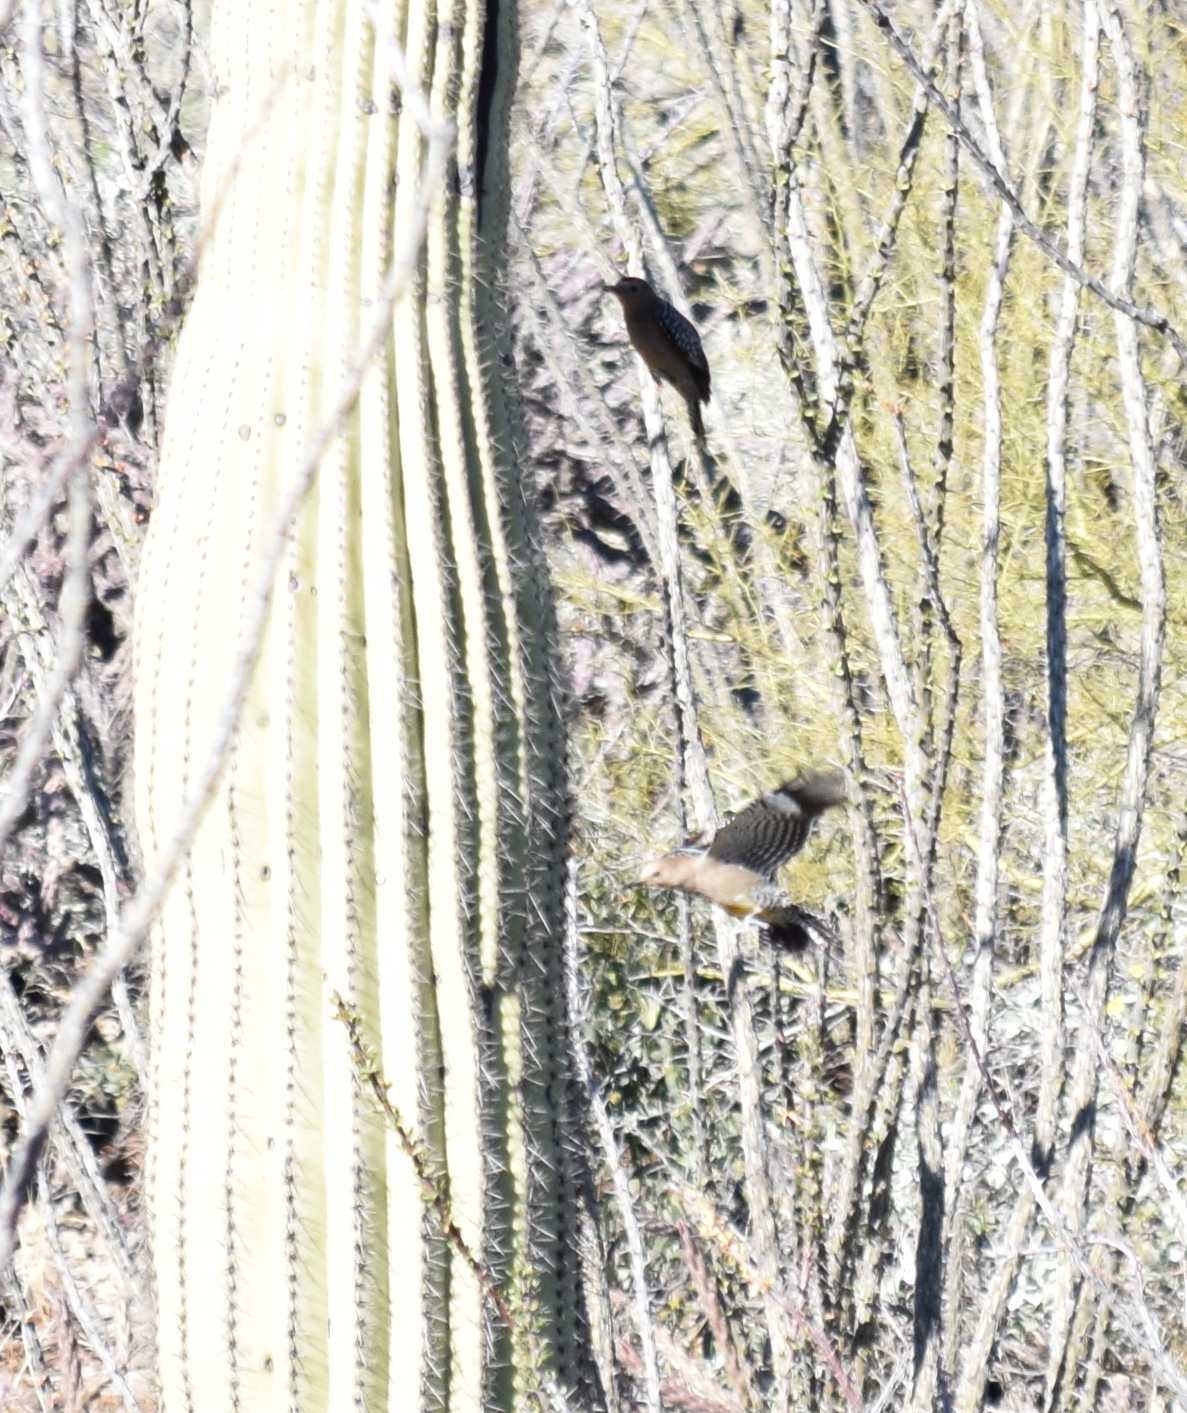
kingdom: Animalia
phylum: Chordata
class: Aves
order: Piciformes
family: Picidae
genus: Melanerpes
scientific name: Melanerpes uropygialis
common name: Gila woodpecker
